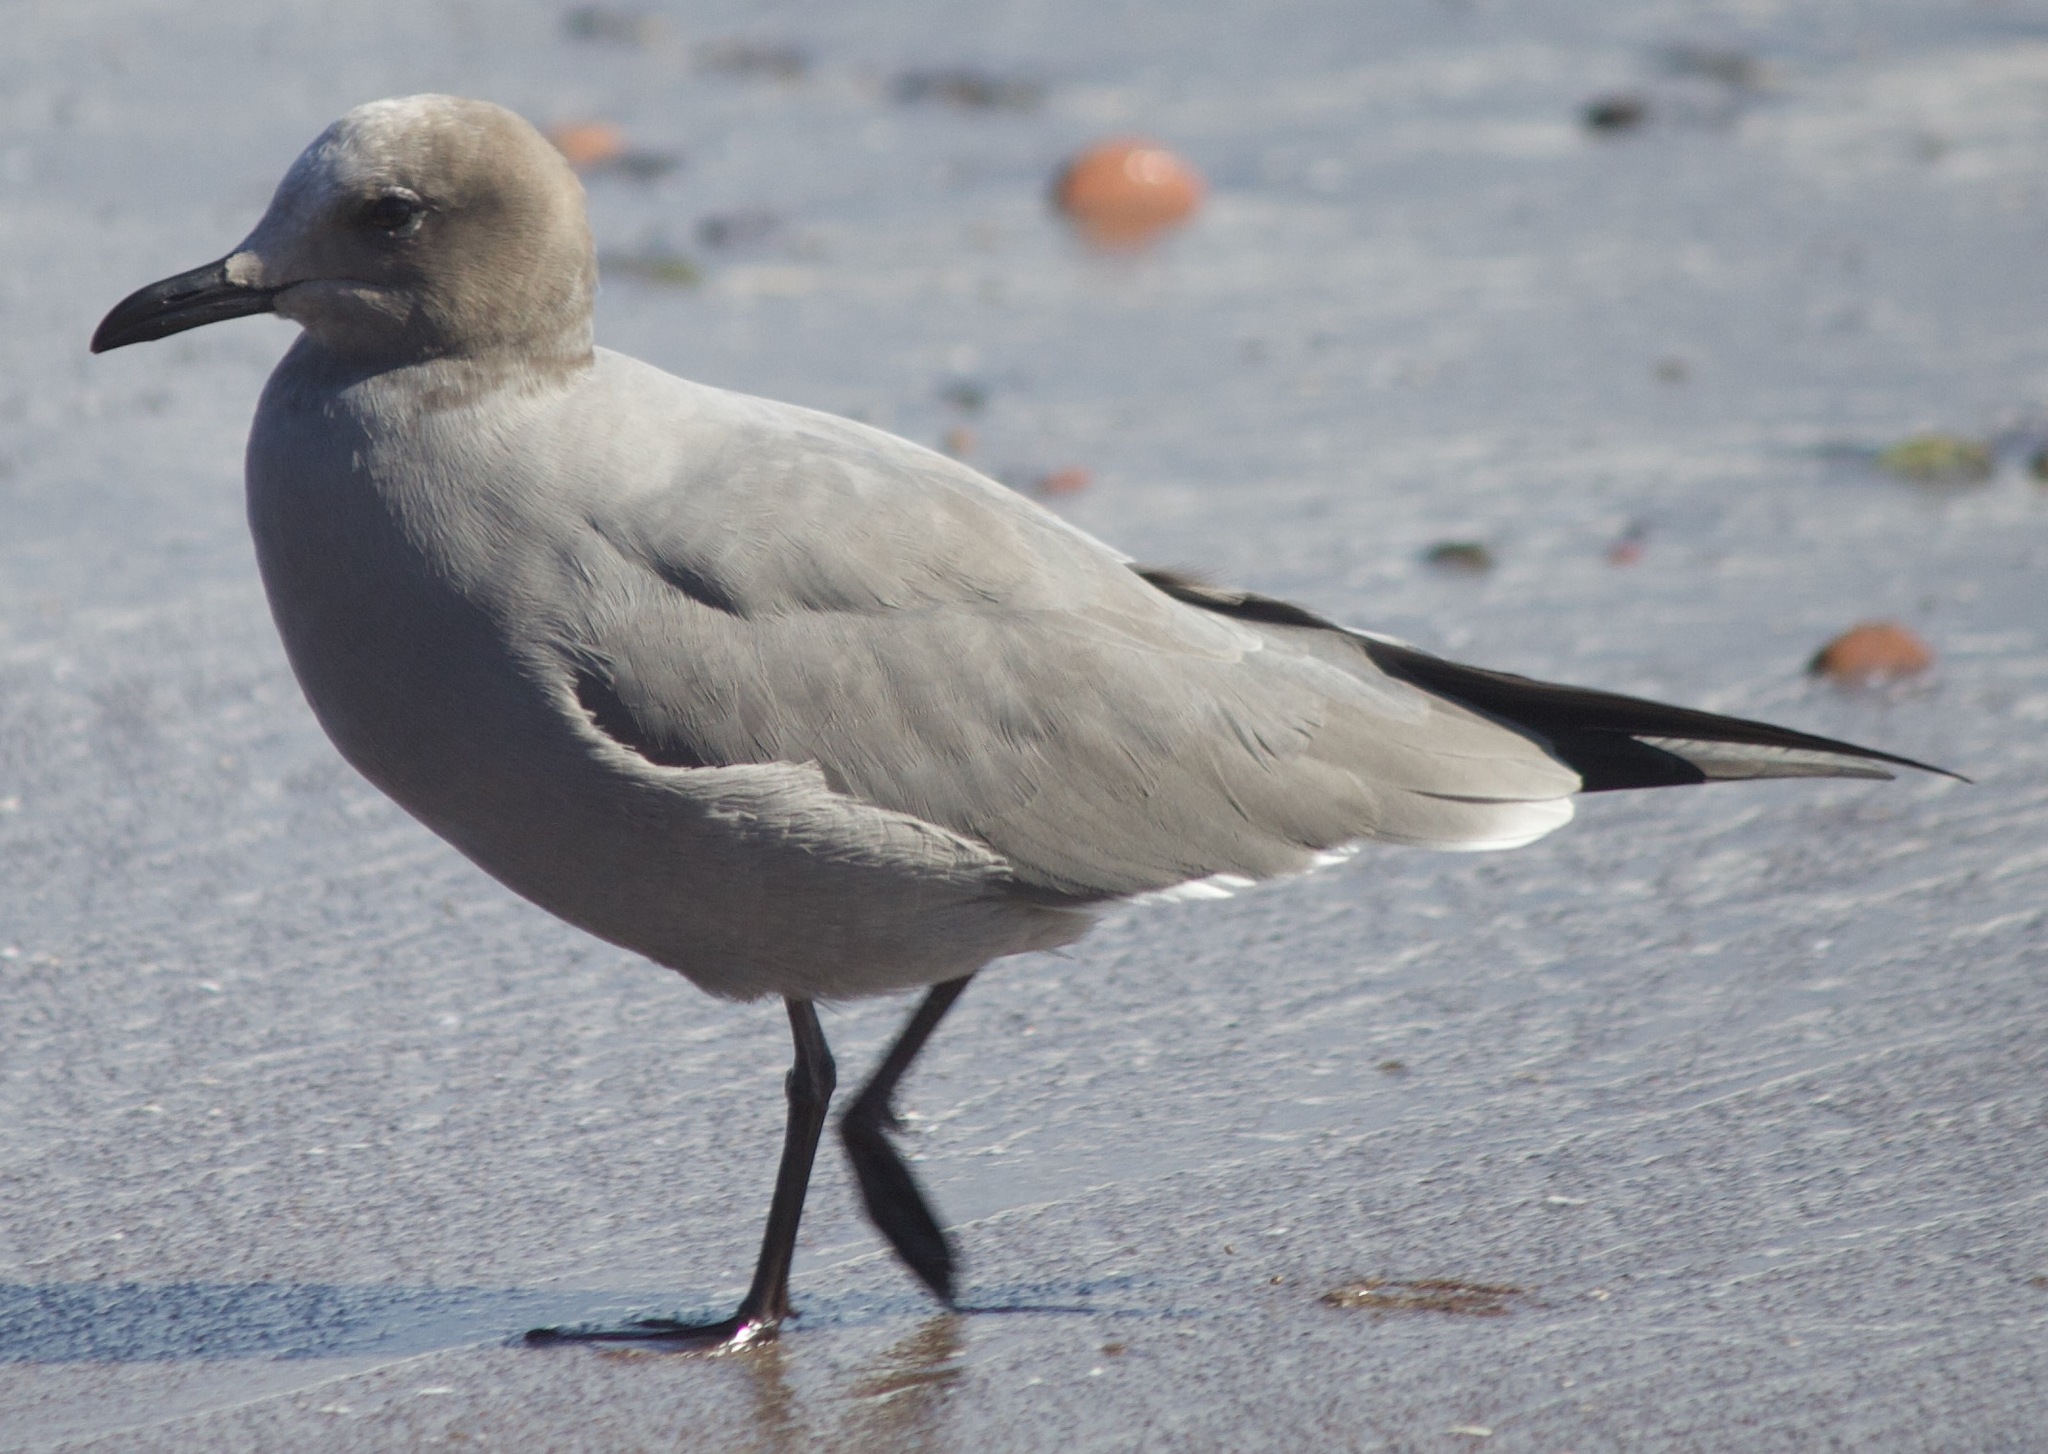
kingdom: Animalia
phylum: Chordata
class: Aves
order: Charadriiformes
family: Laridae
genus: Leucophaeus
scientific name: Leucophaeus modestus
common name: Gray gull
